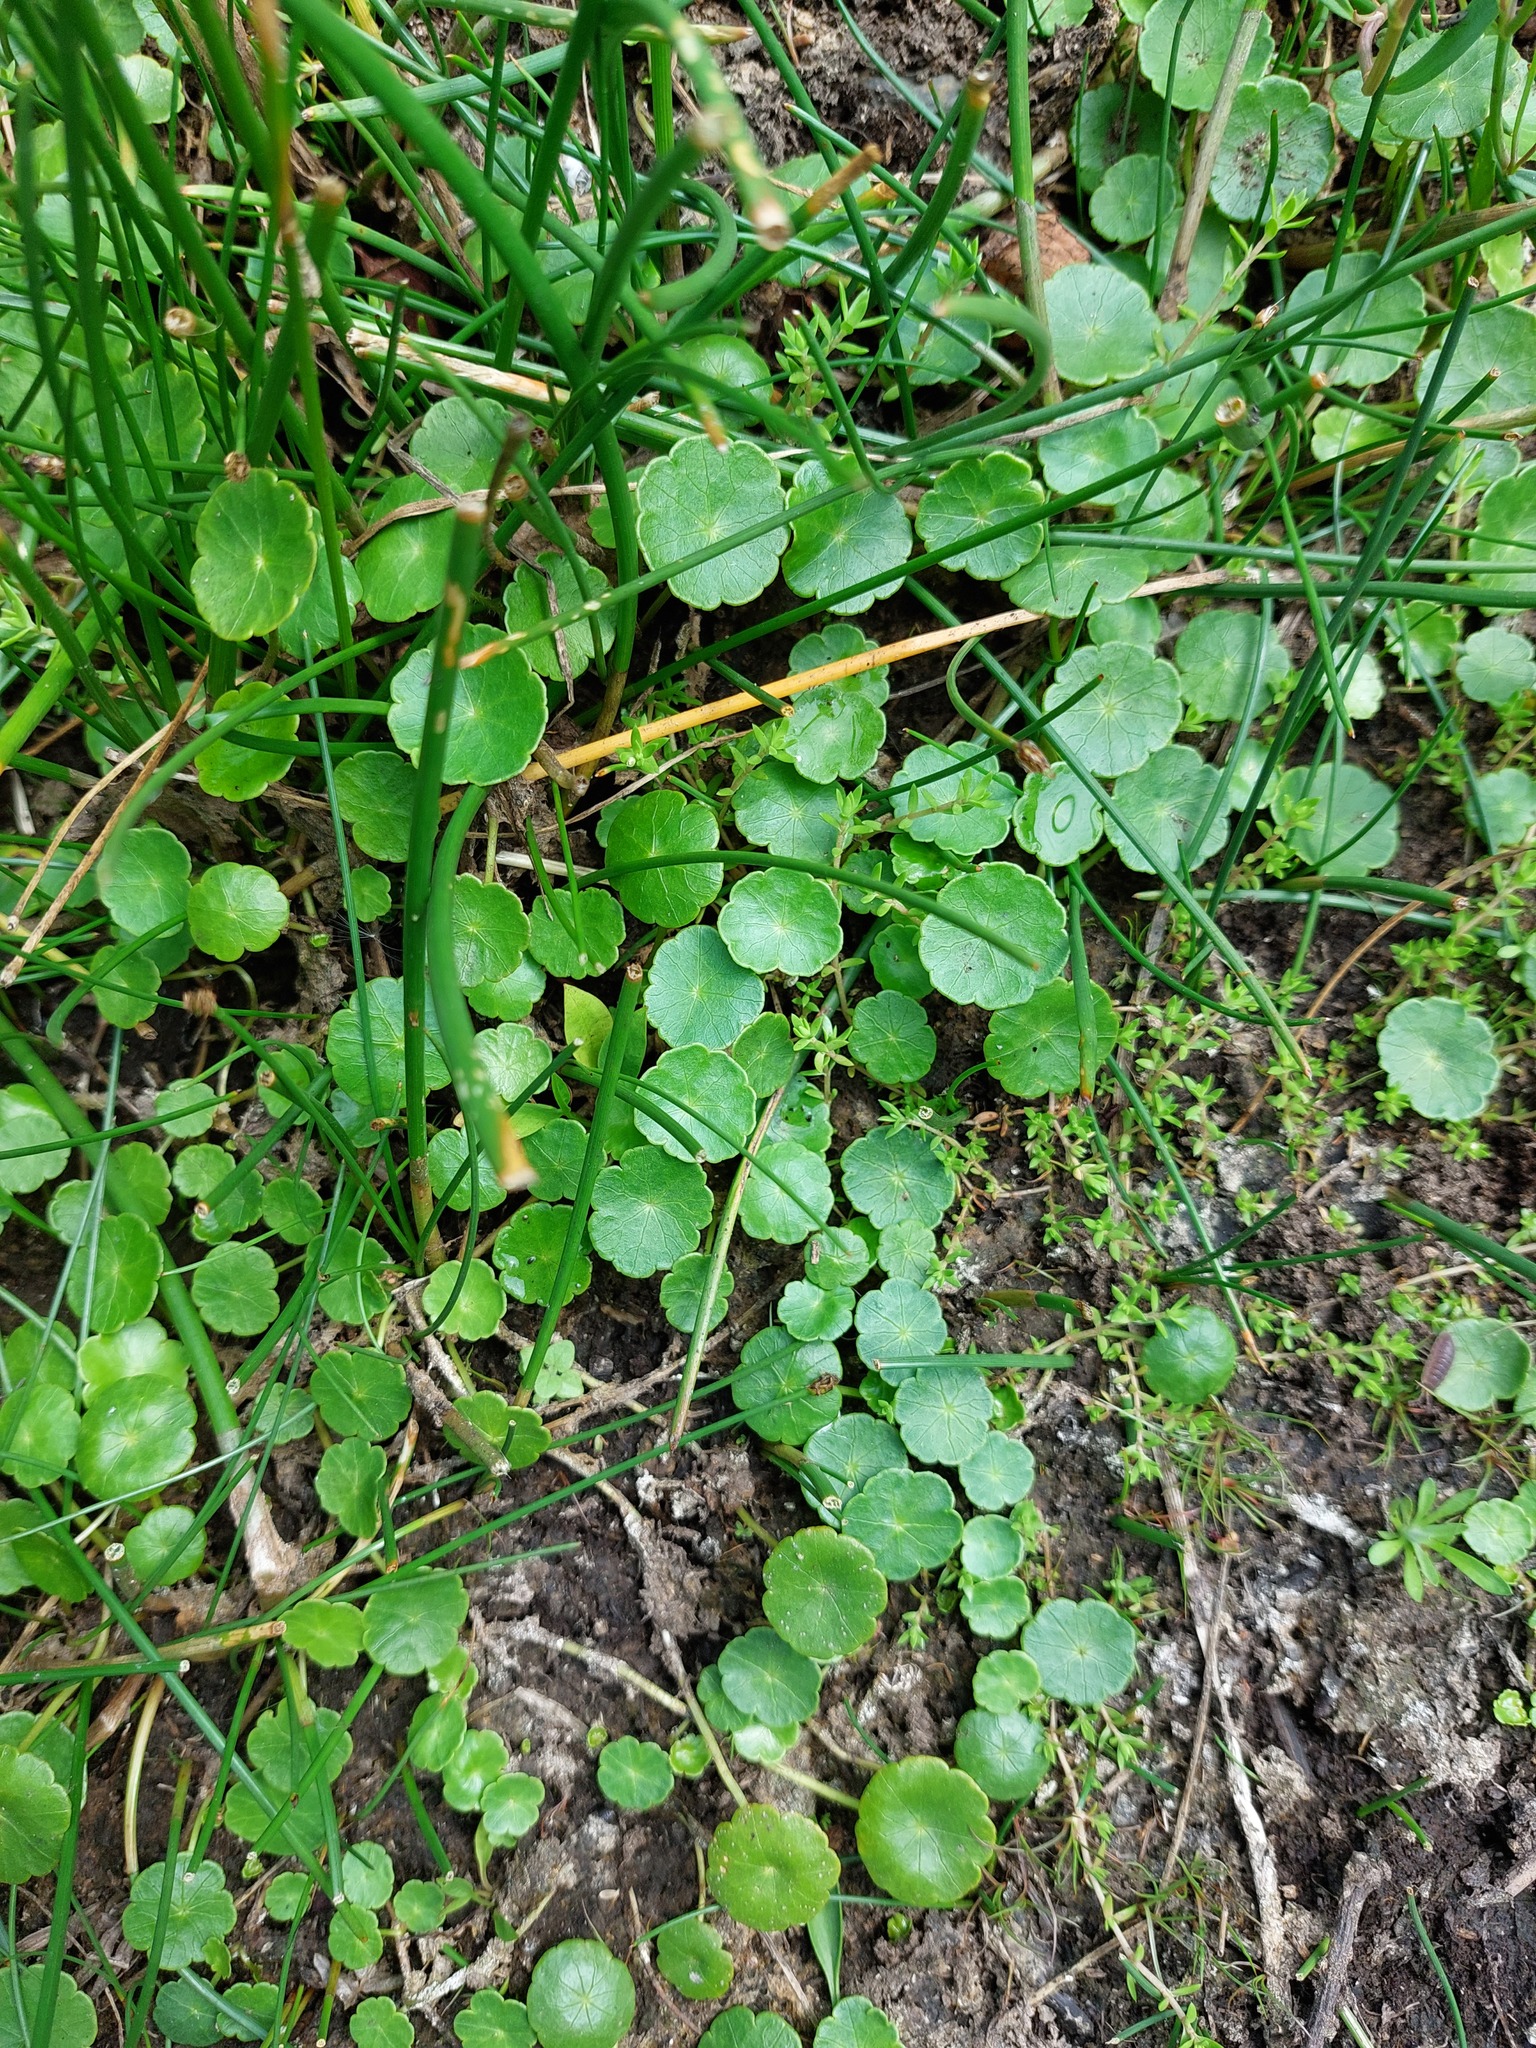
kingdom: Plantae
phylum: Tracheophyta
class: Magnoliopsida
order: Apiales
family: Araliaceae
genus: Hydrocotyle
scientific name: Hydrocotyle vulgaris
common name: Marsh pennywort
